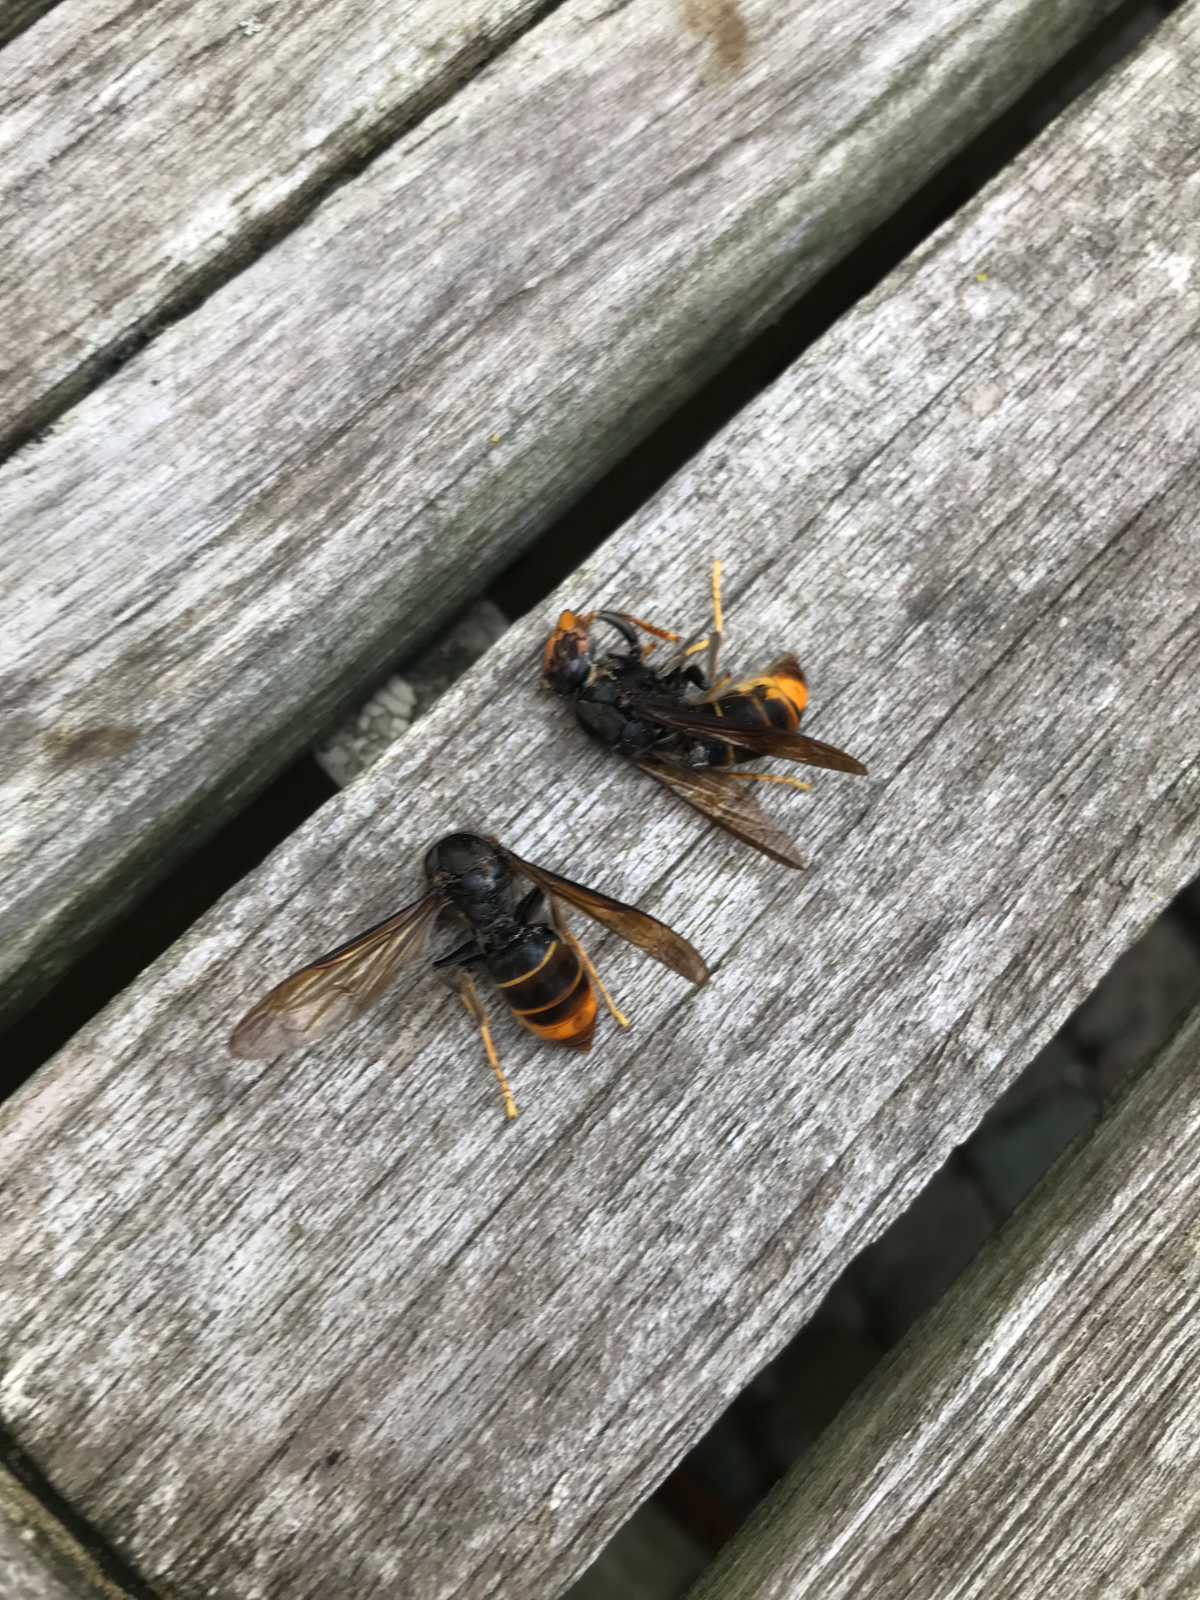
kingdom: Animalia
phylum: Arthropoda
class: Insecta
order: Hymenoptera
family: Vespidae
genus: Vespa
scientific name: Vespa velutina
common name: Asian hornet
